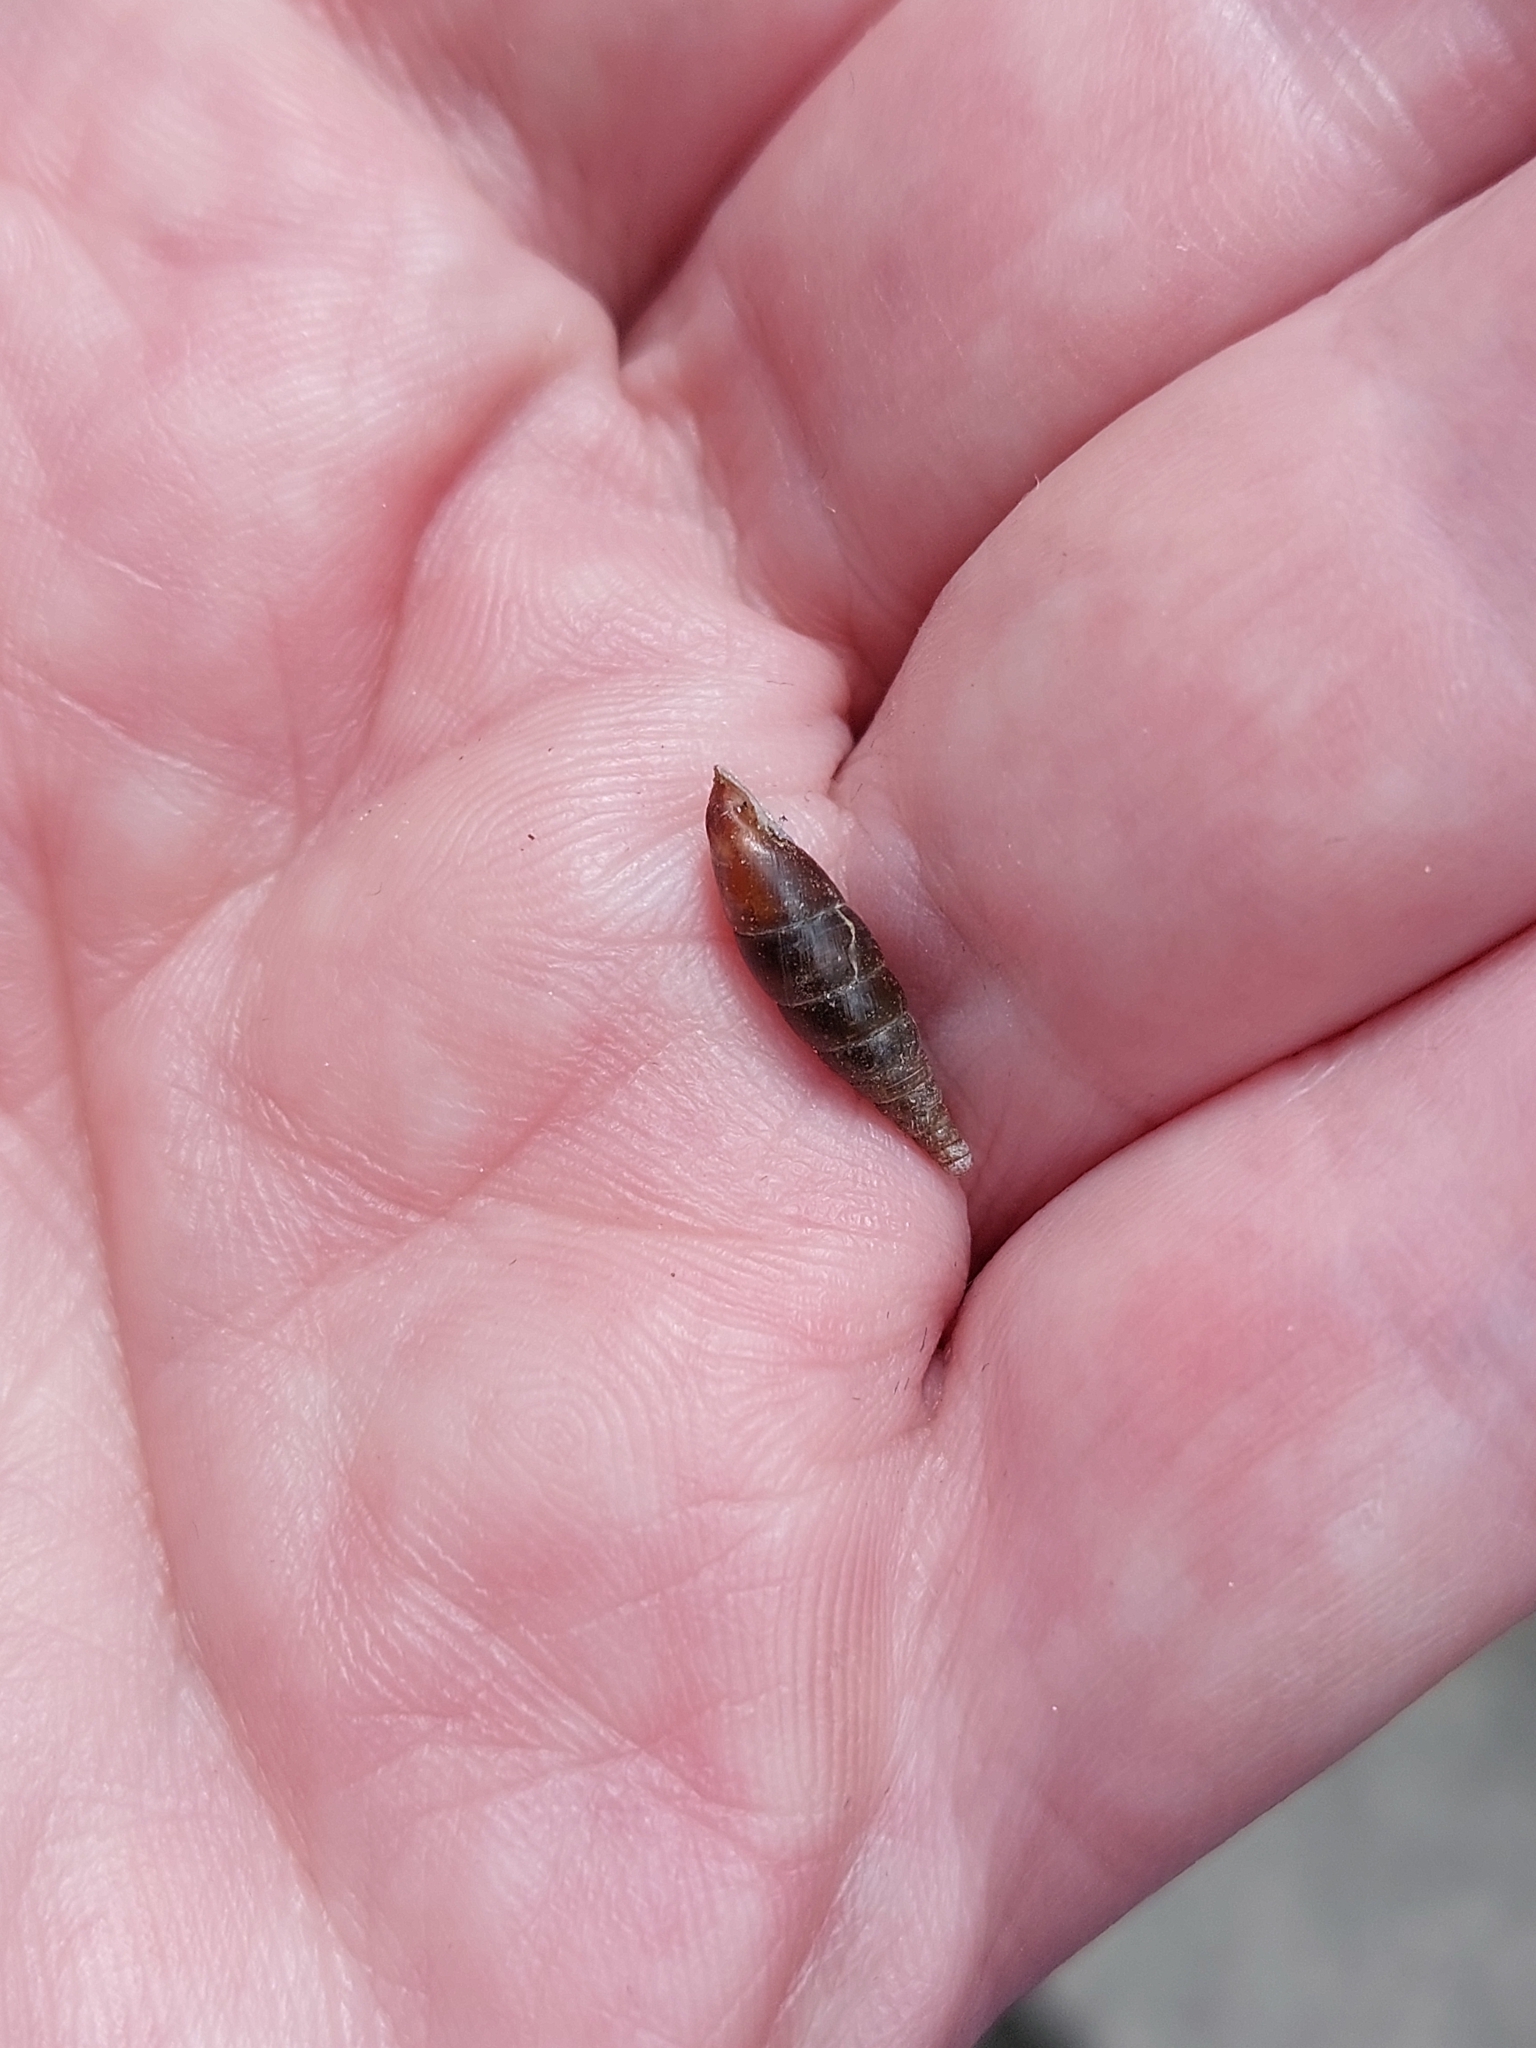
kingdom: Animalia
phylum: Mollusca
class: Gastropoda
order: Stylommatophora
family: Clausiliidae
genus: Cochlodina
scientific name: Cochlodina laminata
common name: Plaited door snail
